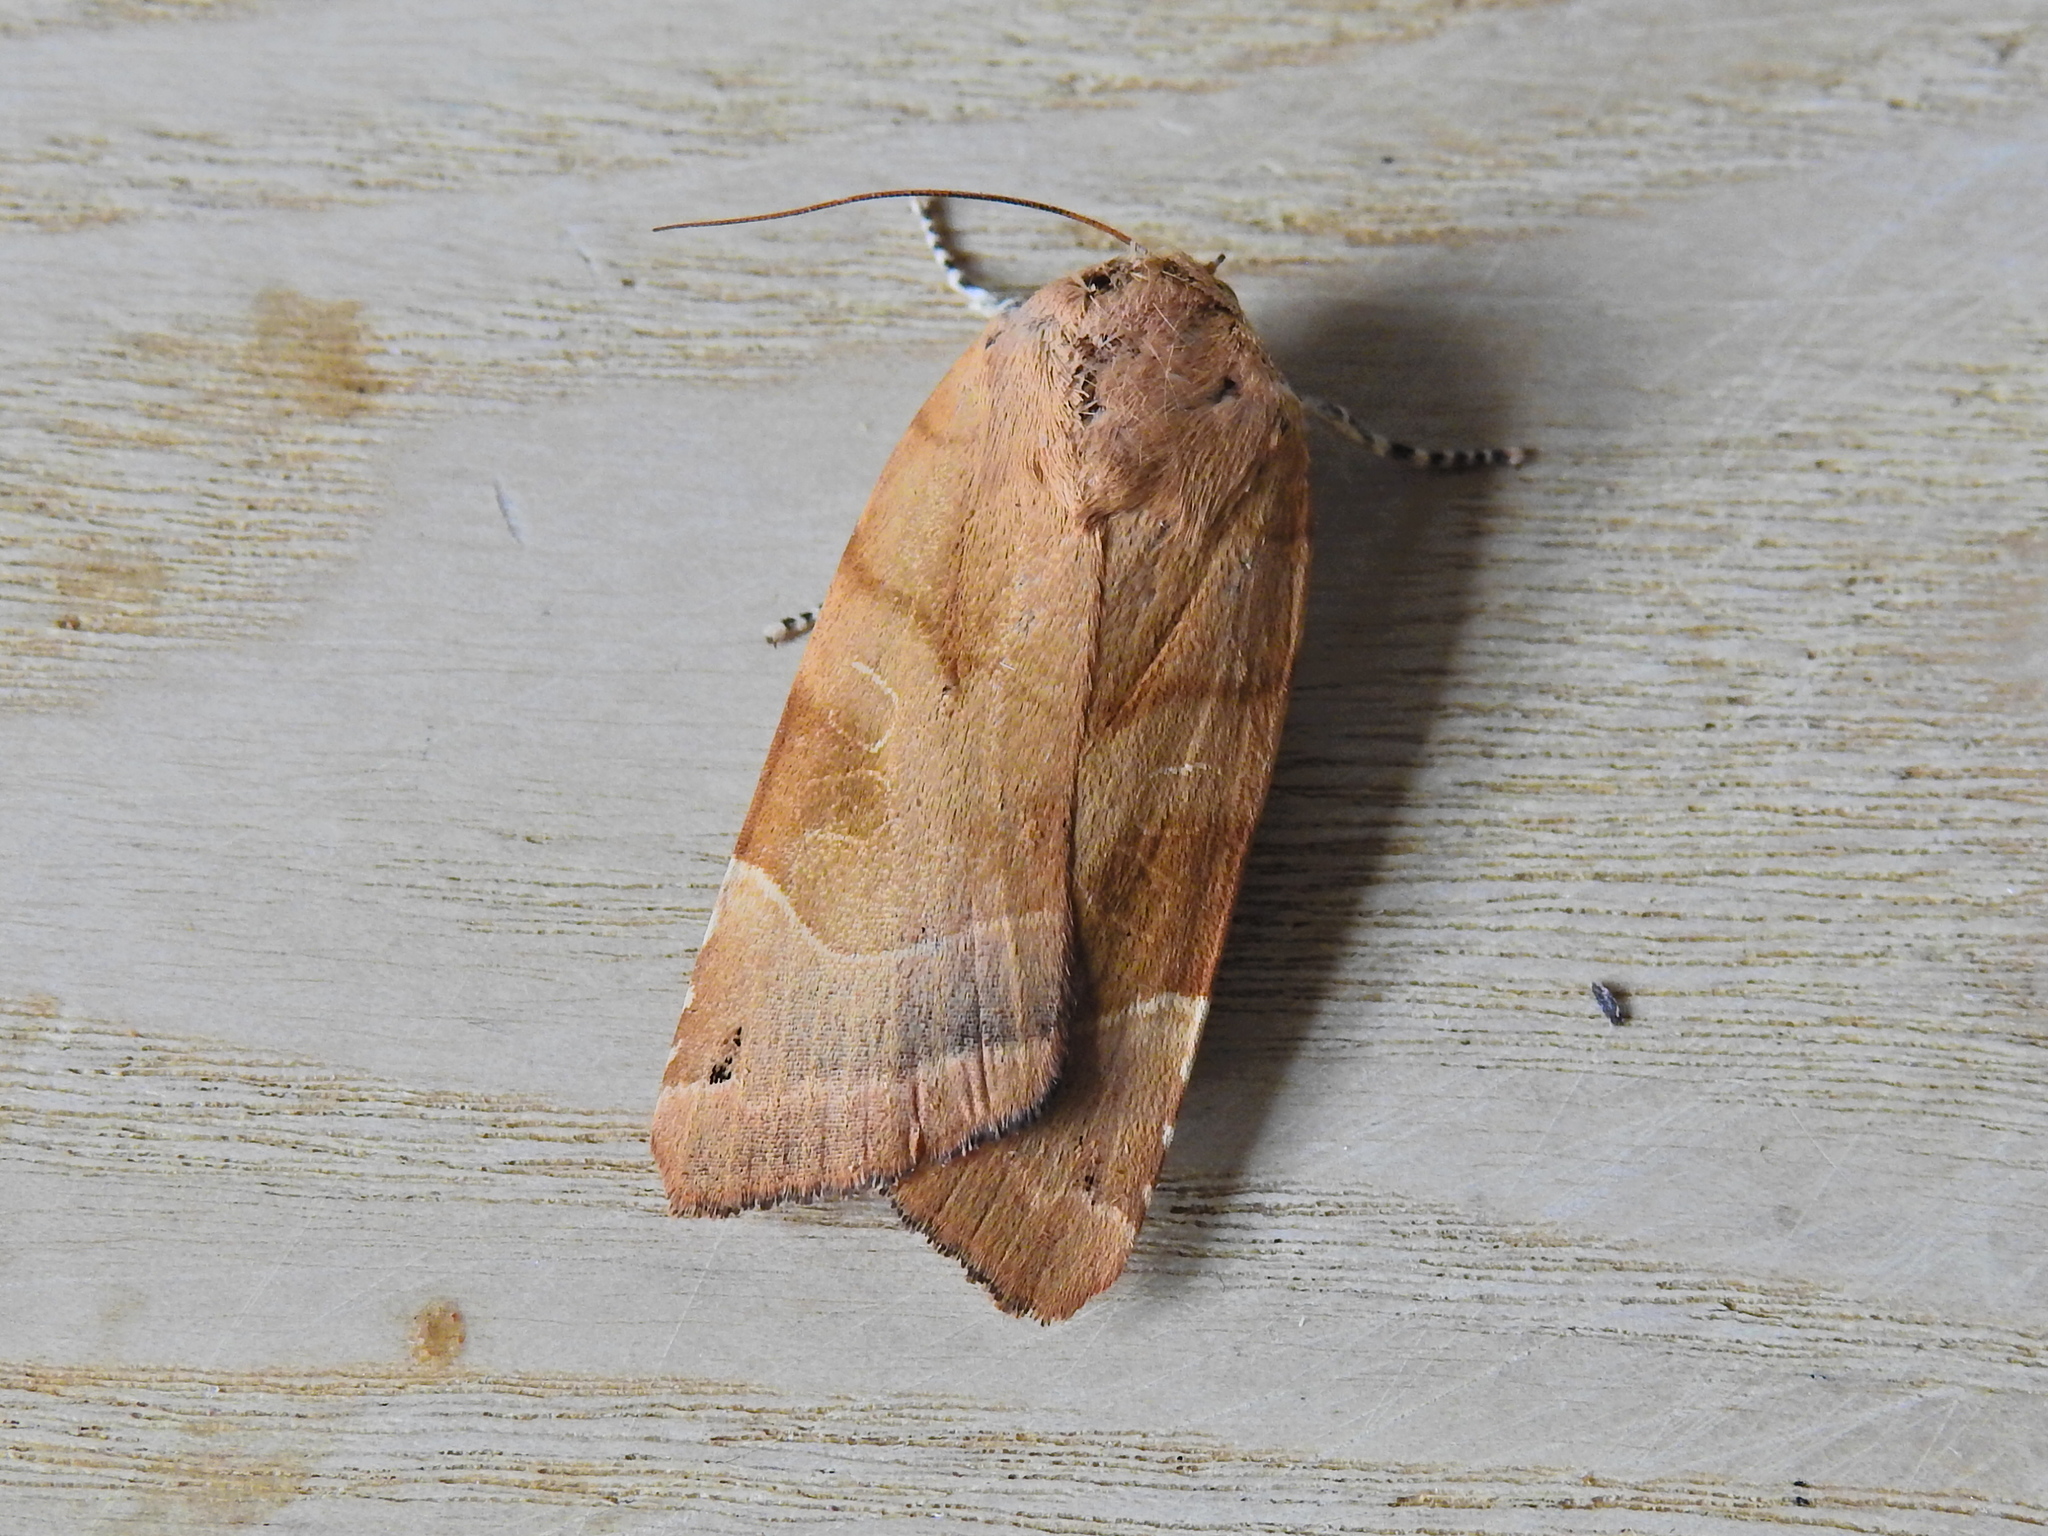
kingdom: Animalia
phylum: Arthropoda
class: Insecta
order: Lepidoptera
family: Noctuidae
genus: Noctua
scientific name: Noctua fimbriata
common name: Broad-bordered yellow underwing
